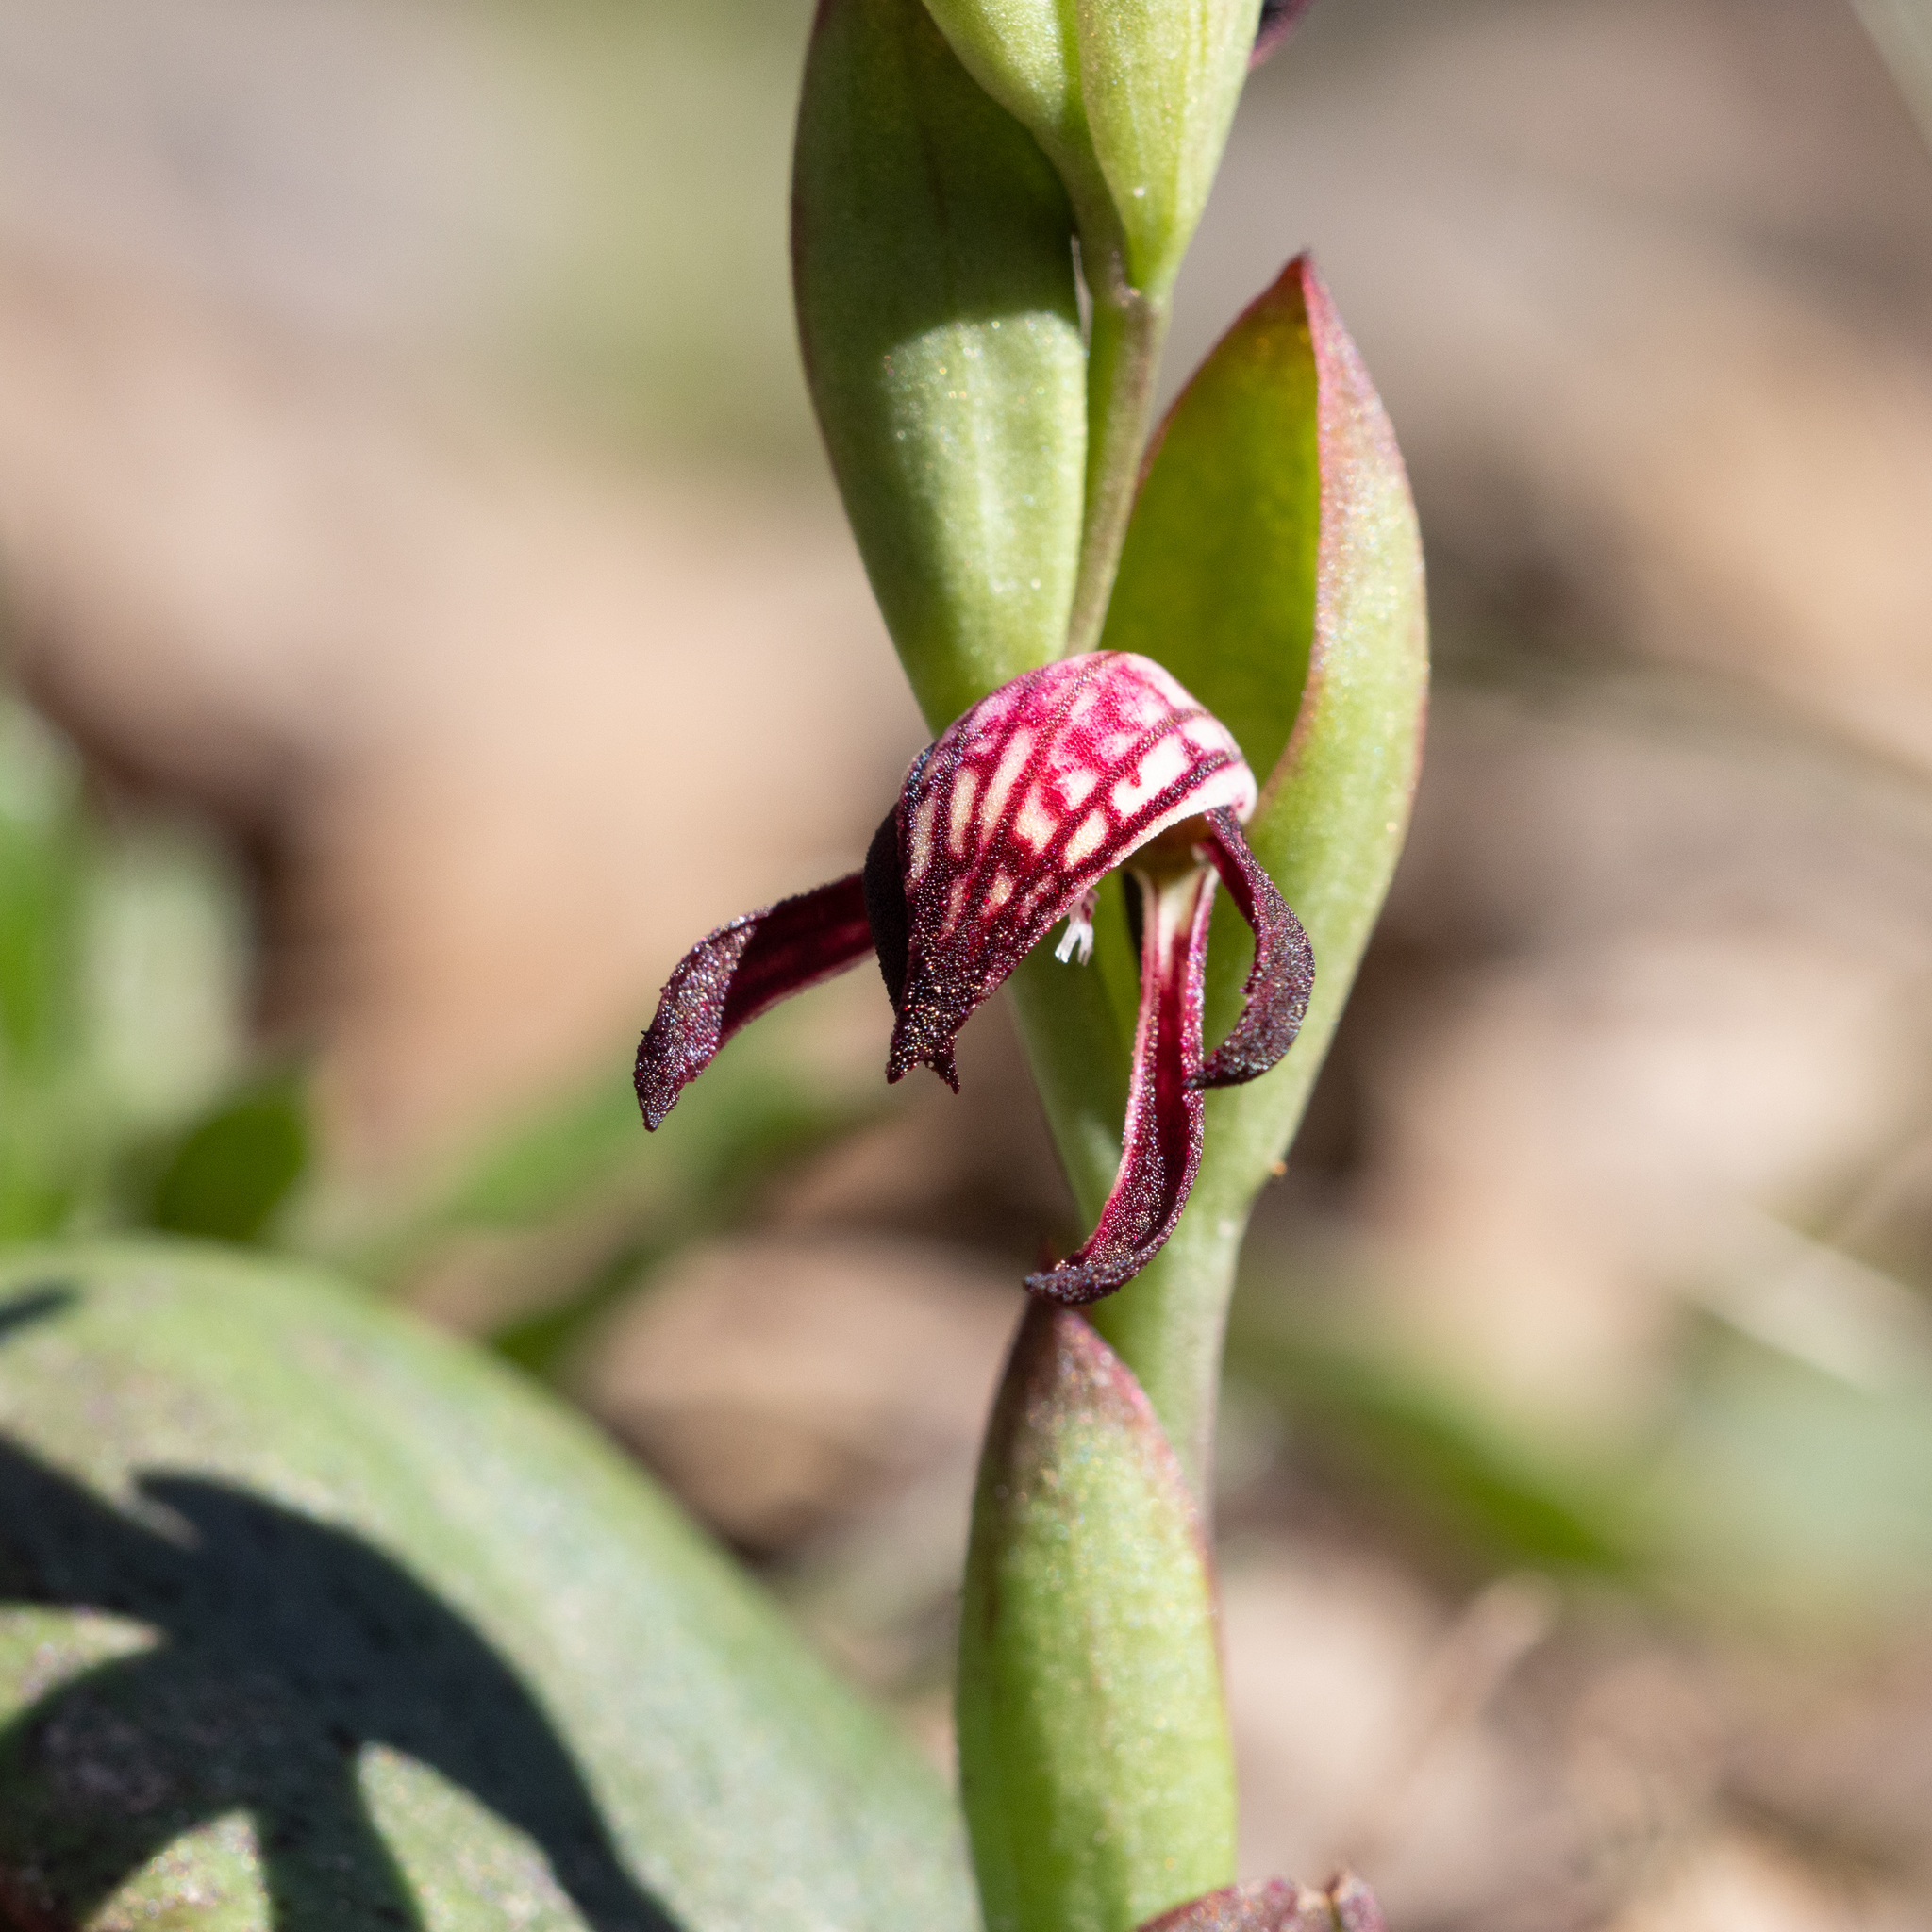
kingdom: Plantae
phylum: Tracheophyta
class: Liliopsida
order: Asparagales
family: Orchidaceae
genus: Pyrorchis
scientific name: Pyrorchis nigricans
